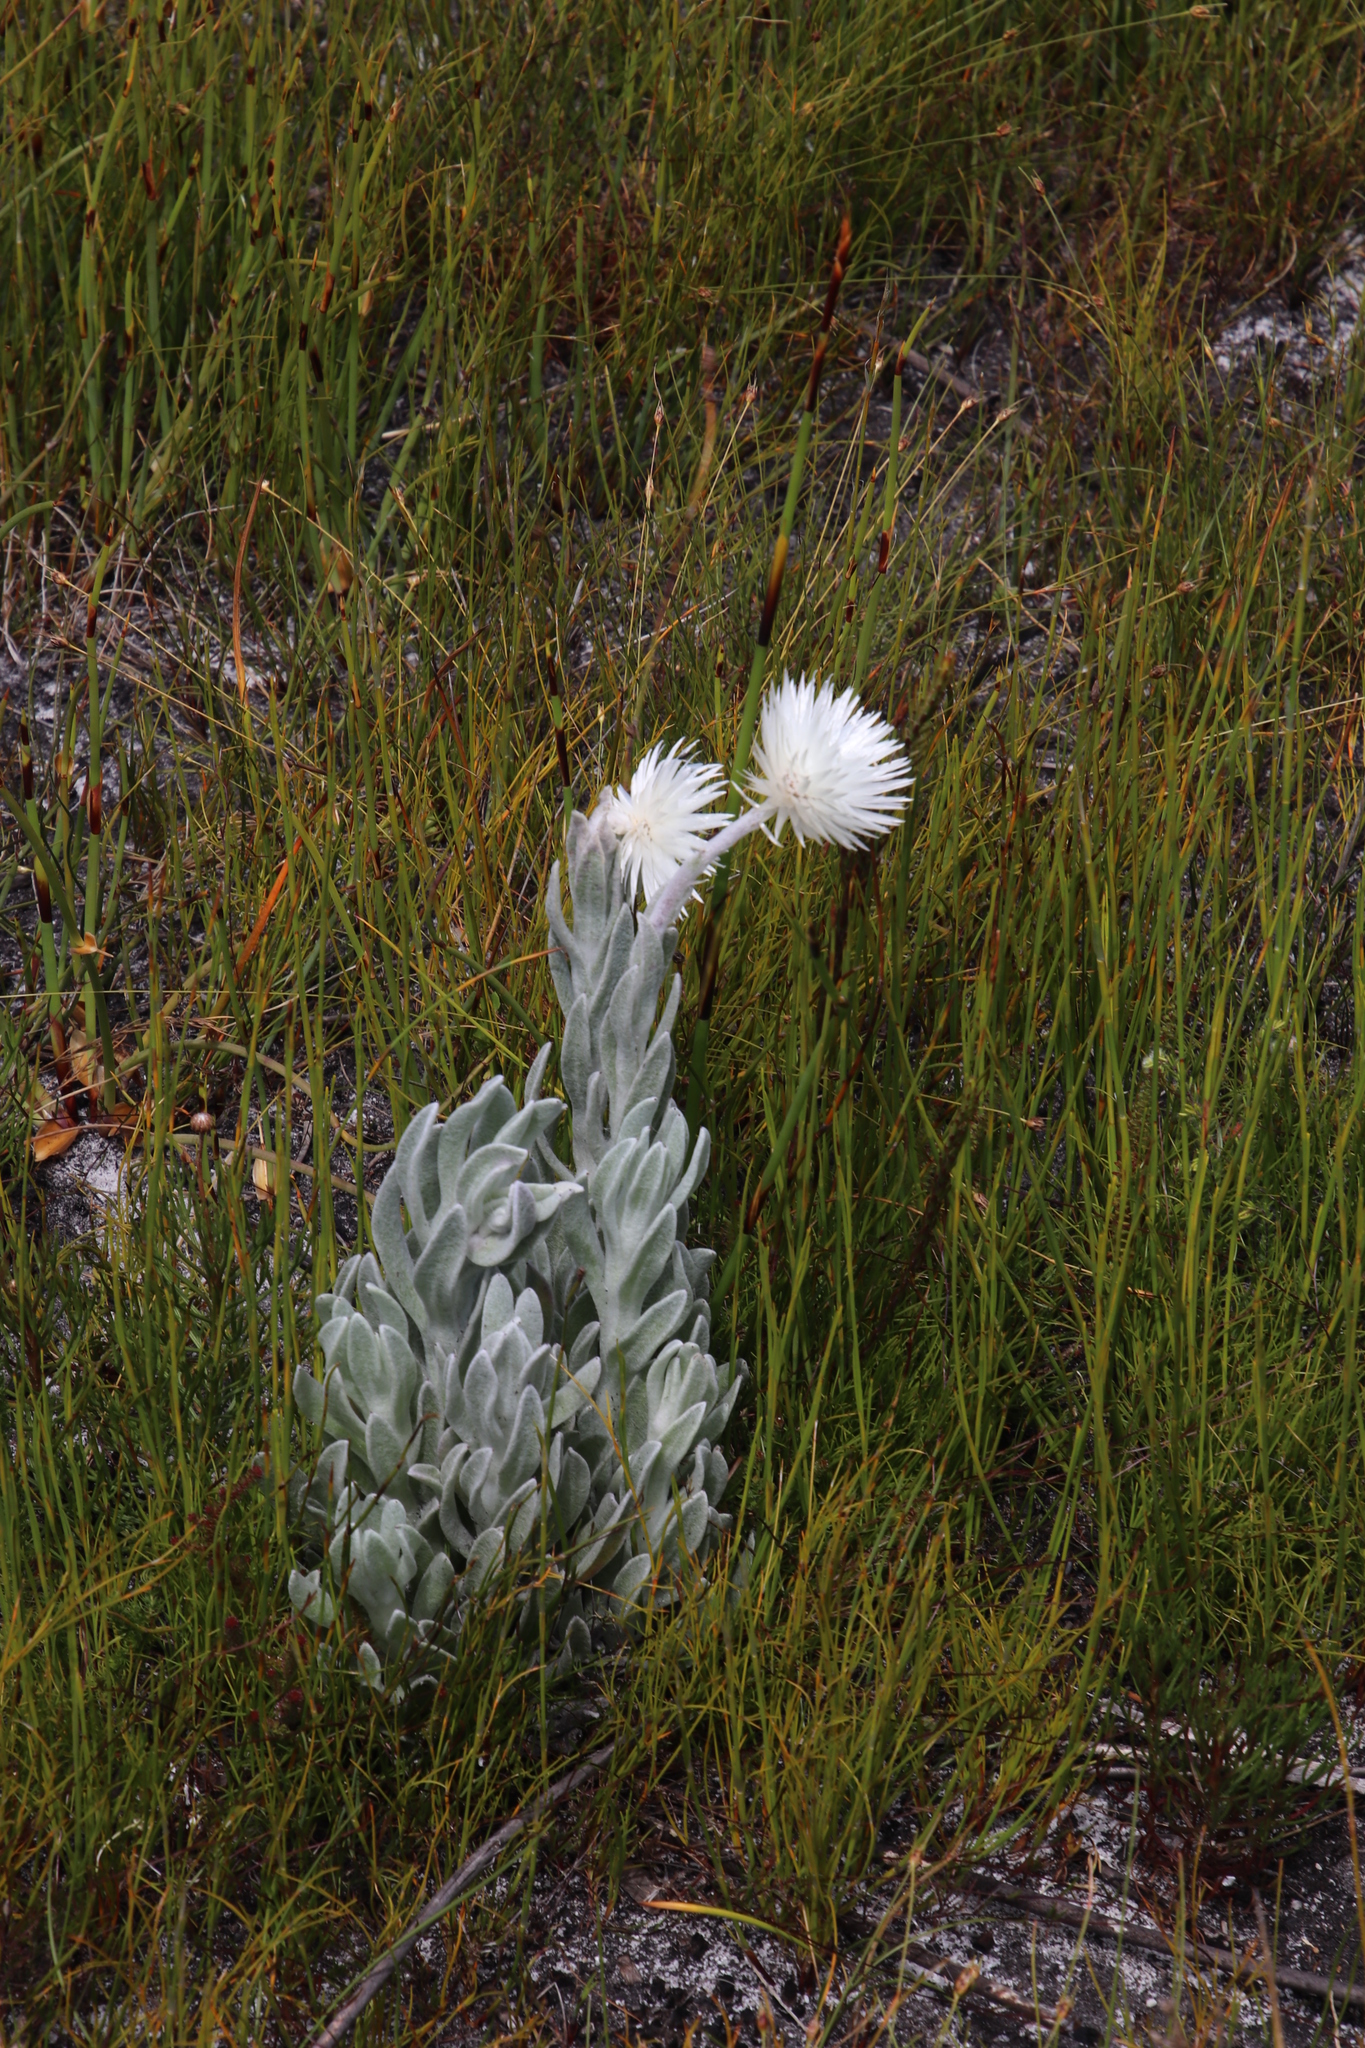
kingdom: Plantae
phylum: Tracheophyta
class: Magnoliopsida
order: Asterales
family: Asteraceae
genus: Syncarpha
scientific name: Syncarpha vestita
